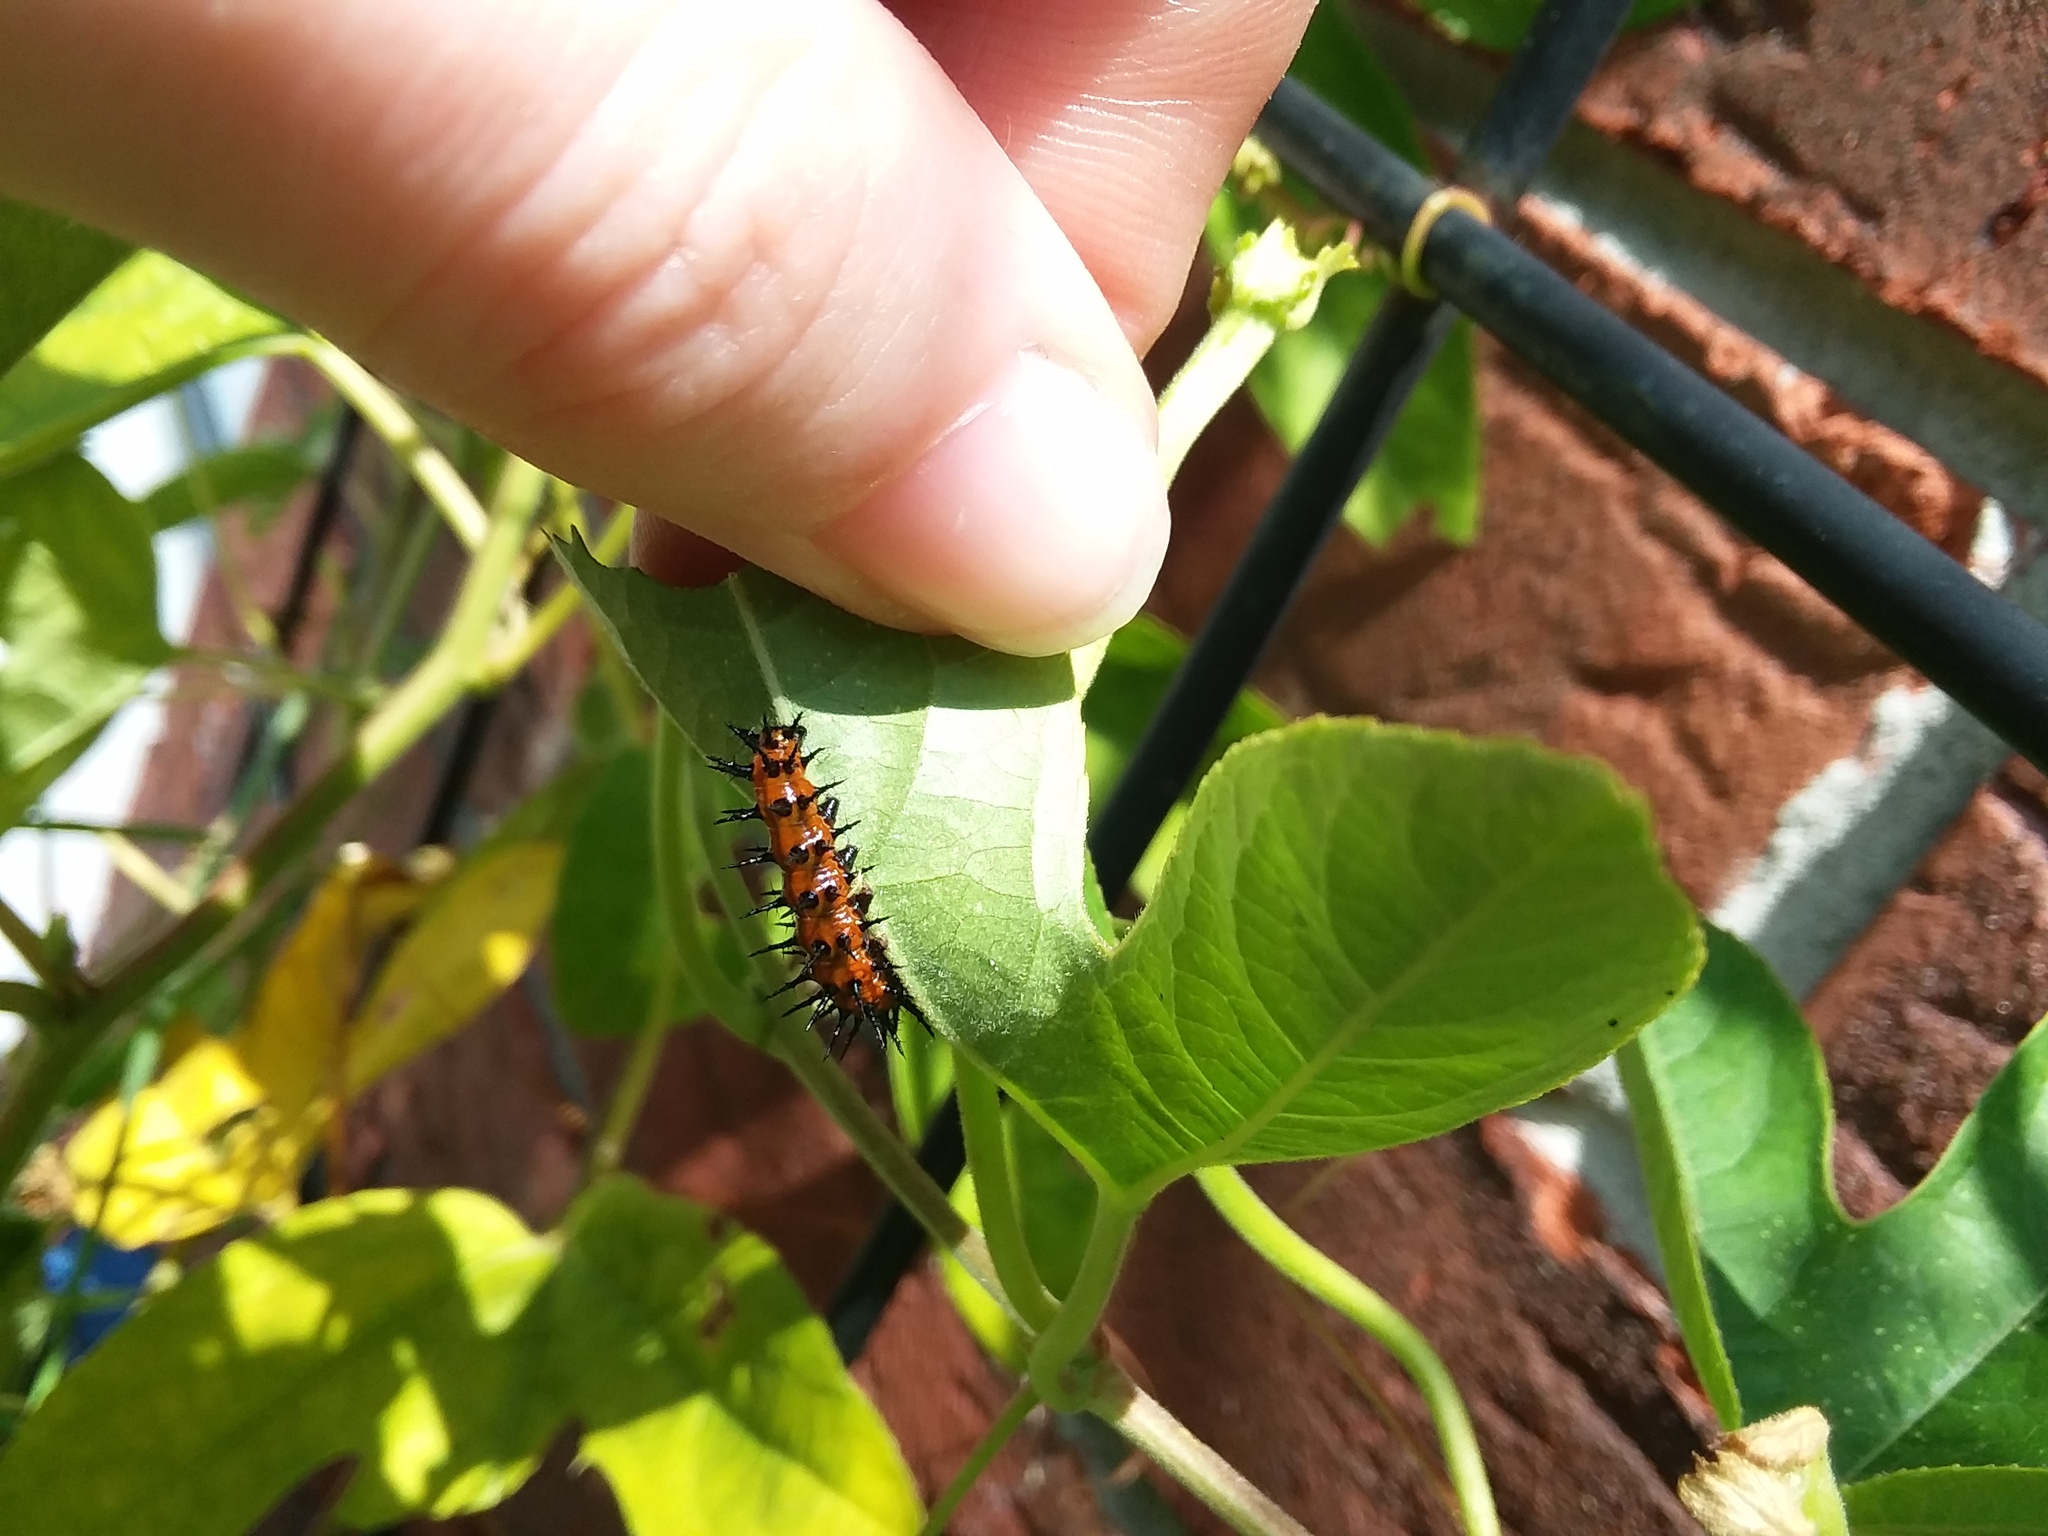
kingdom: Animalia
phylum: Arthropoda
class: Insecta
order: Lepidoptera
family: Nymphalidae
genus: Dione
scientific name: Dione vanillae
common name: Gulf fritillary
